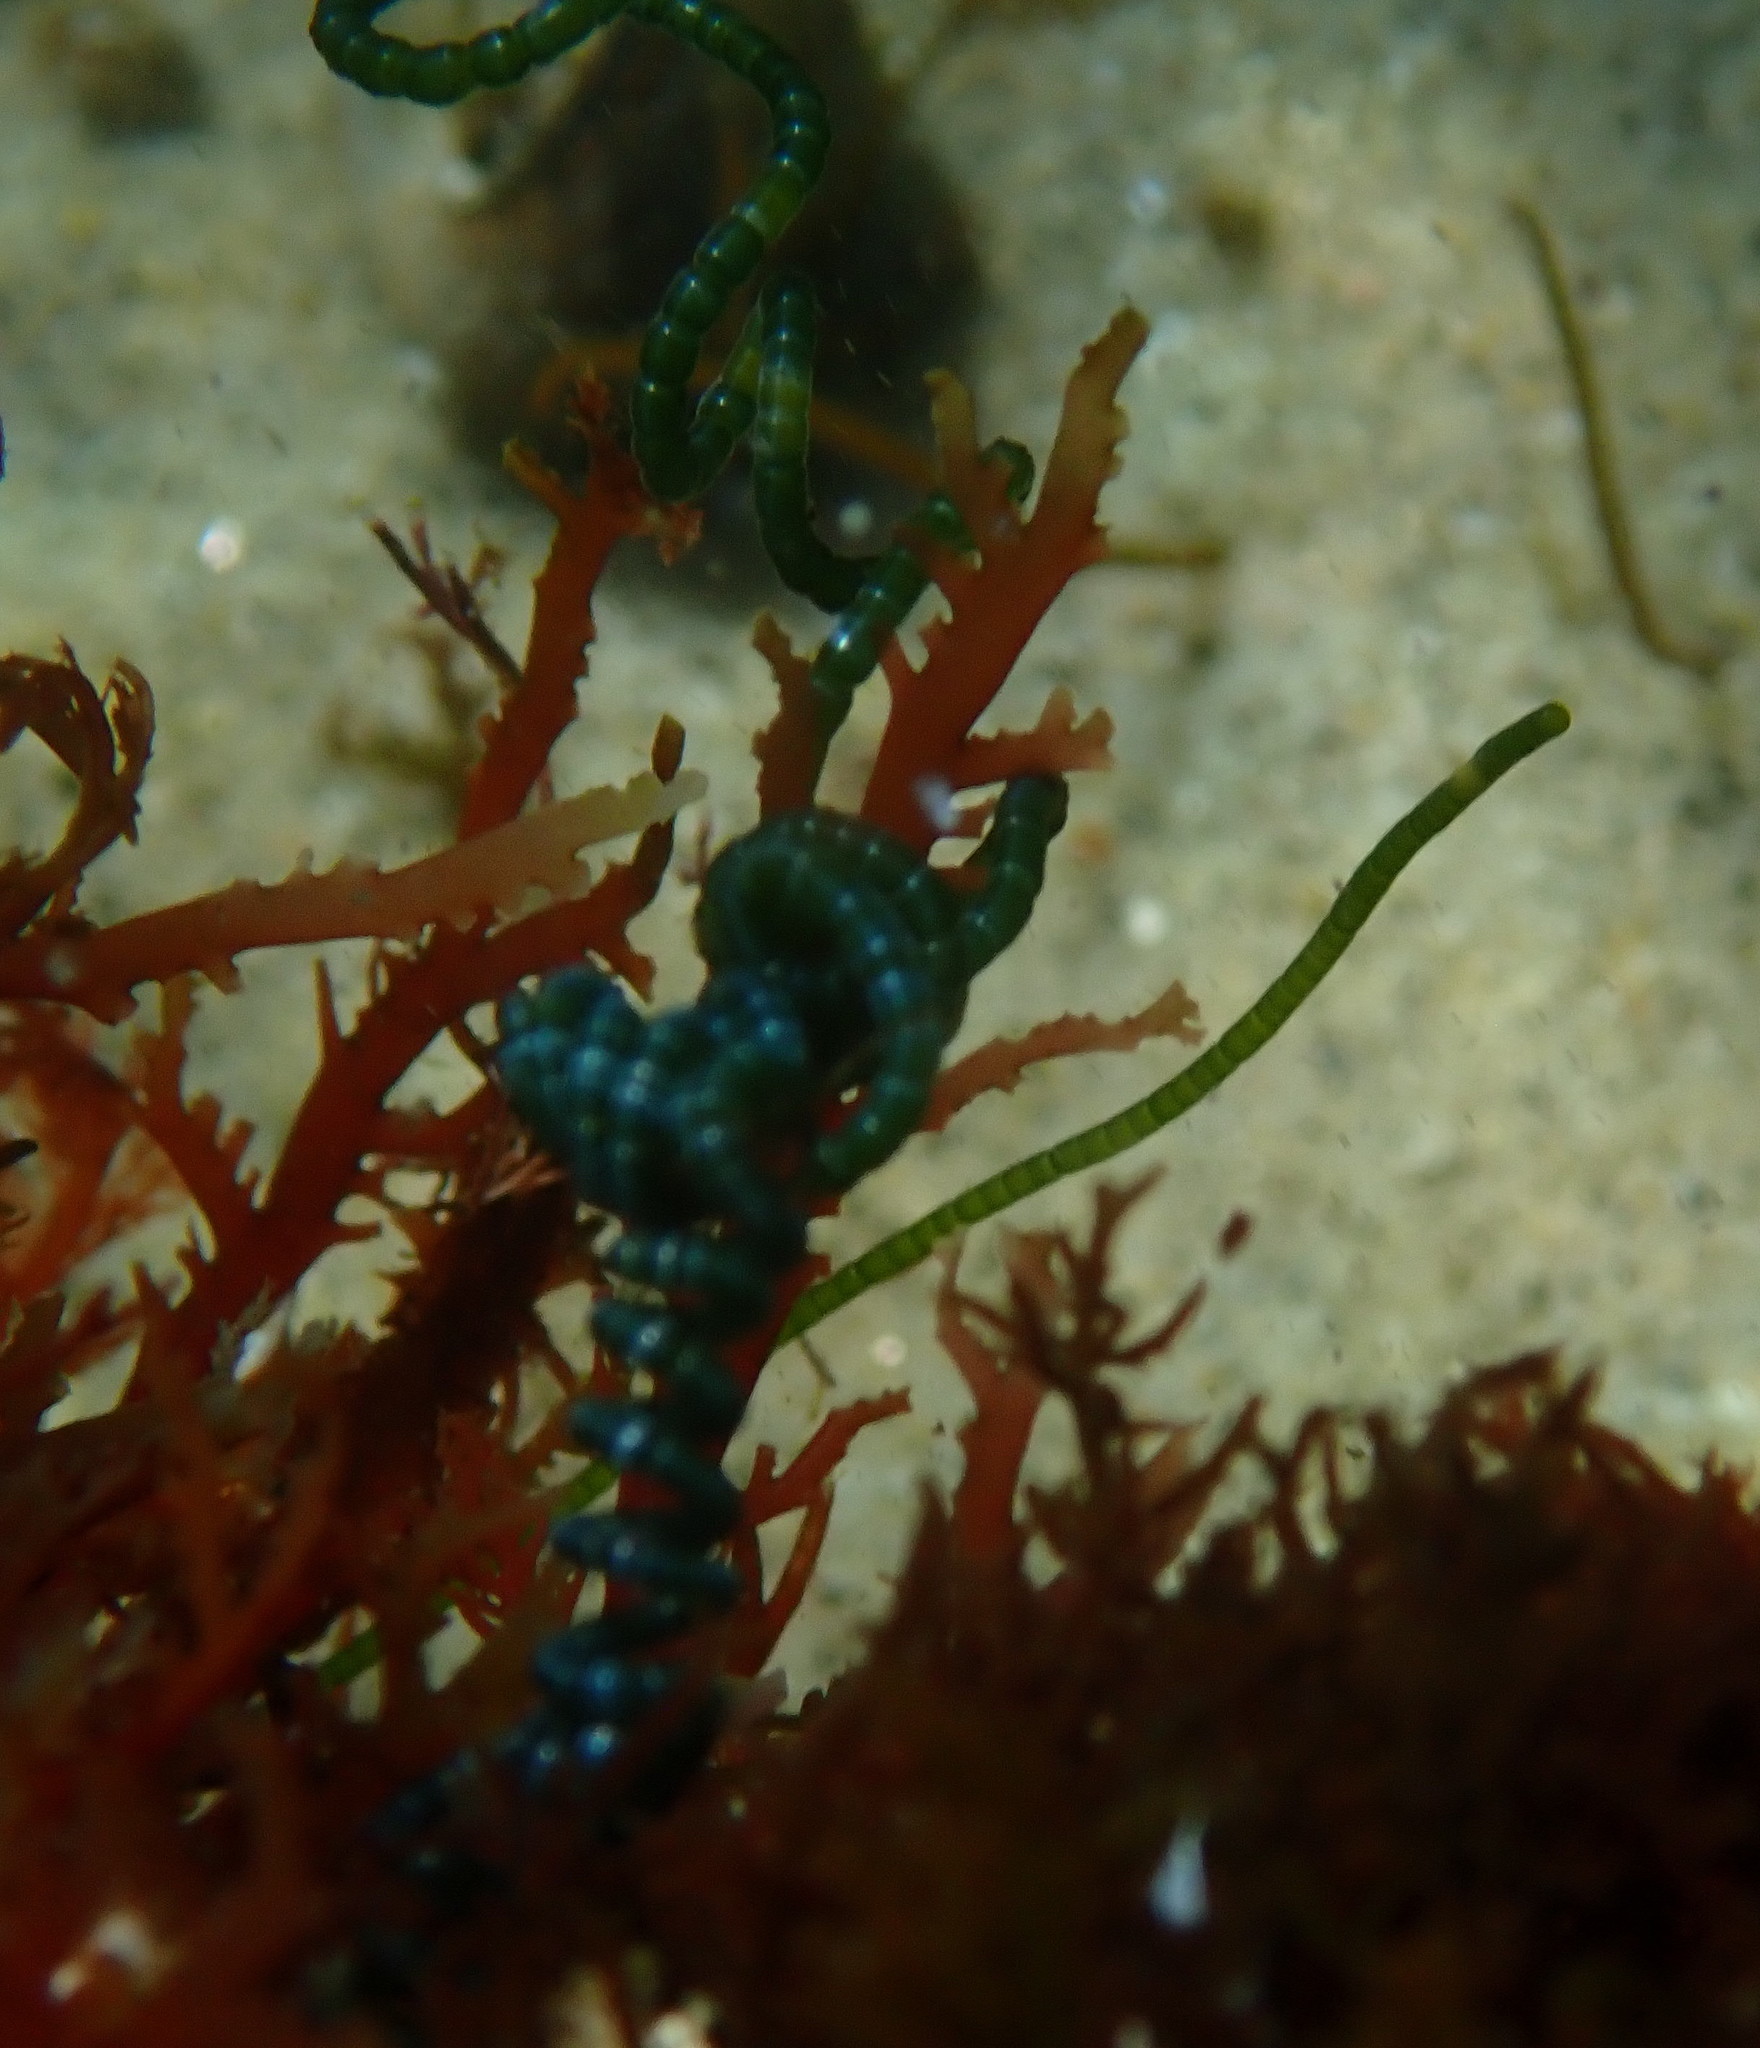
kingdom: Plantae
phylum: Chlorophyta
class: Ulvophyceae
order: Cladophorales
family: Cladophoraceae
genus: Chaetomorpha
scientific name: Chaetomorpha spiralis
